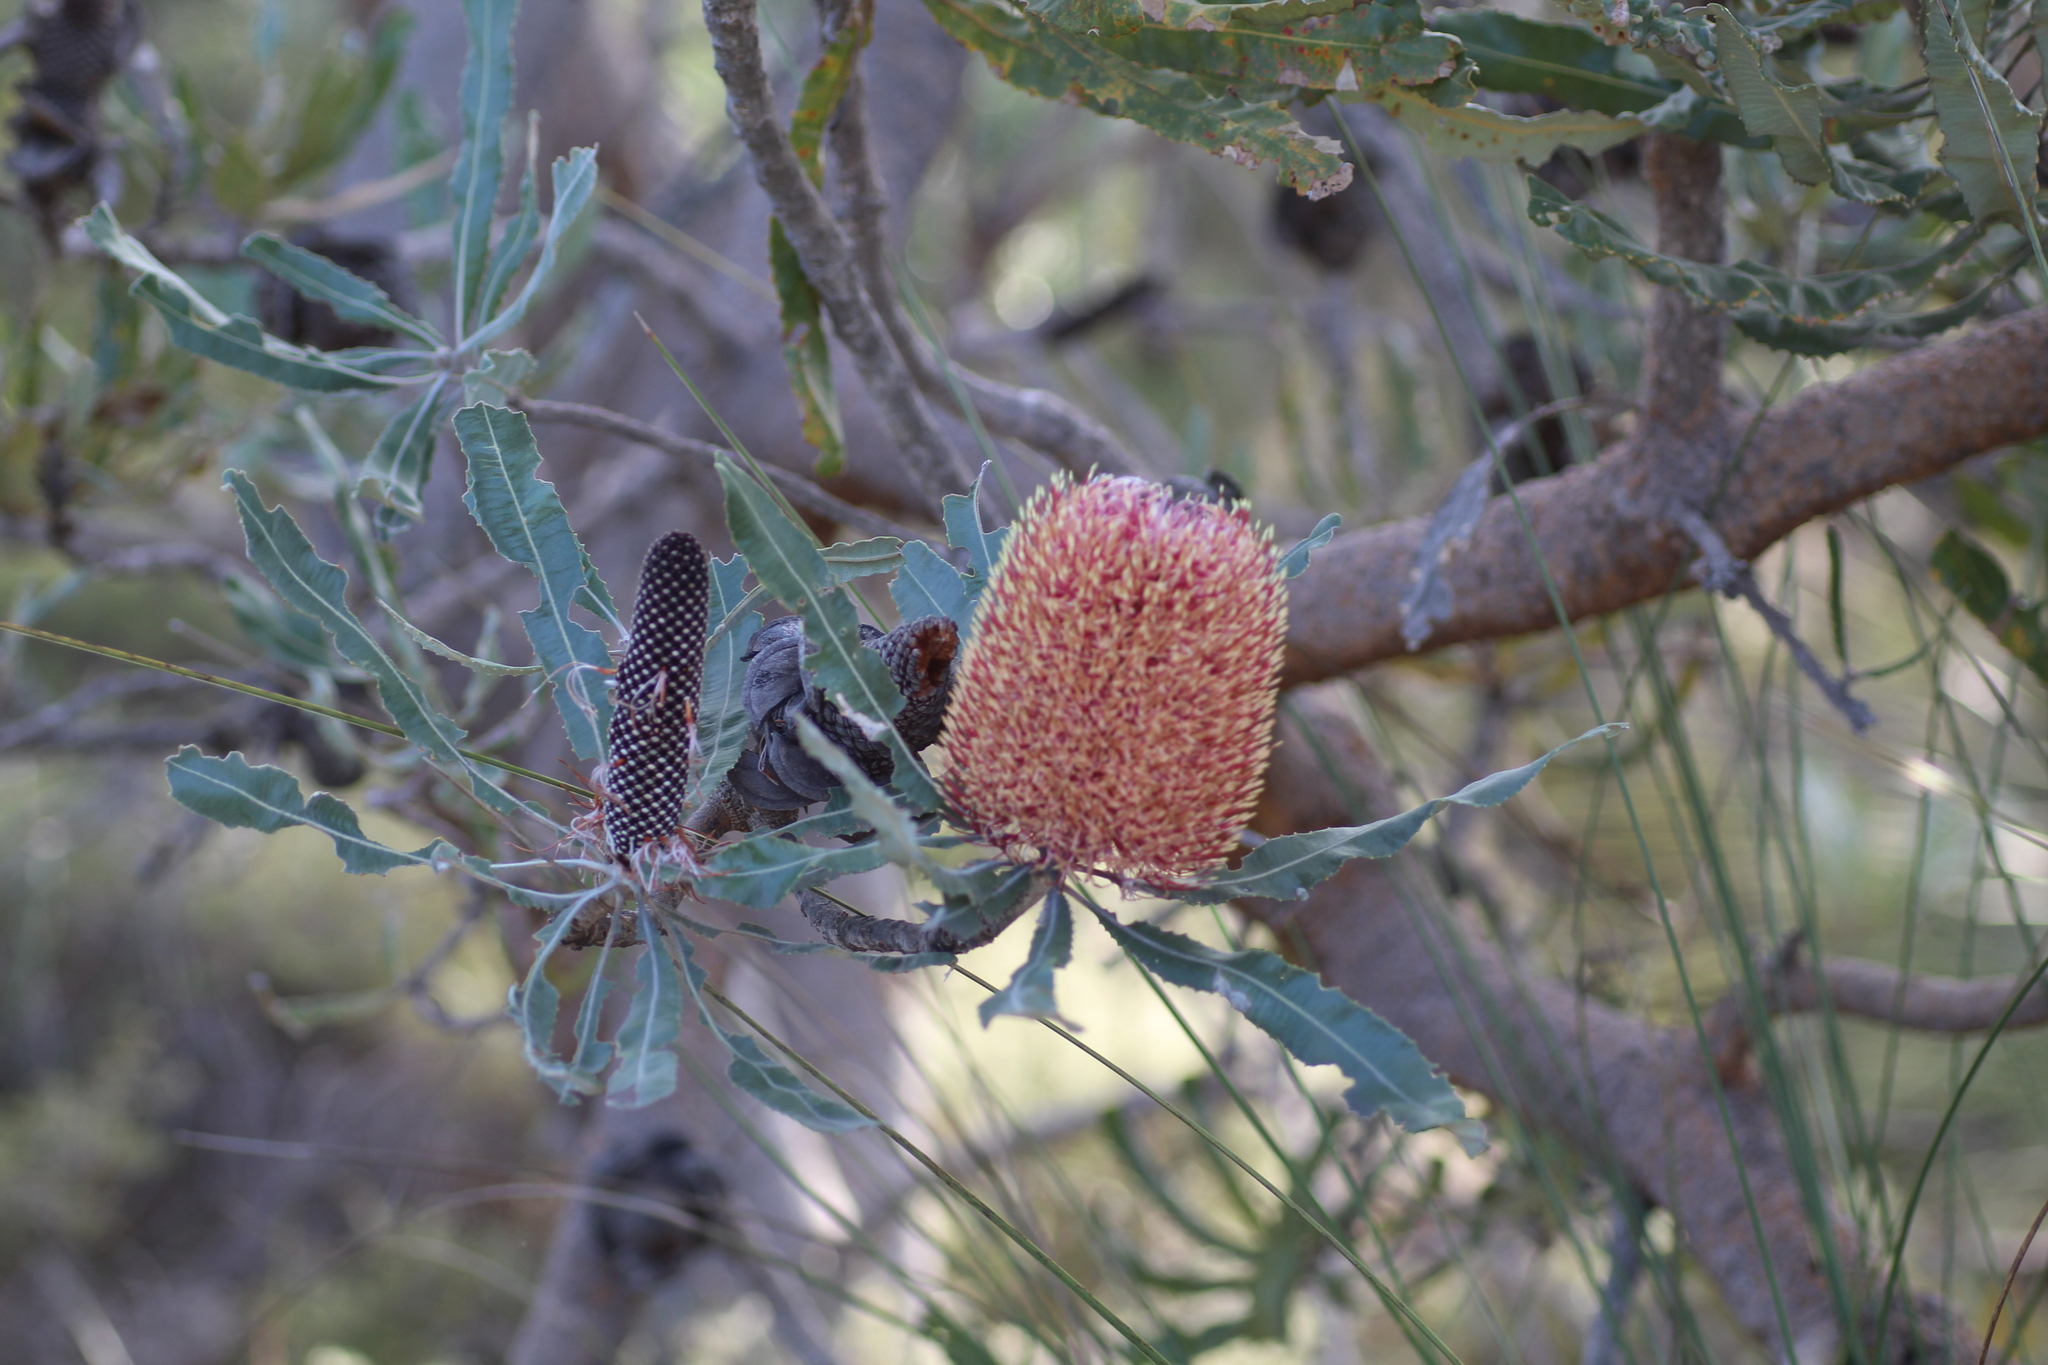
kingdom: Plantae
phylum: Tracheophyta
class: Magnoliopsida
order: Proteales
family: Proteaceae
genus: Banksia
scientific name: Banksia menziesii
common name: Menzie's banksia
